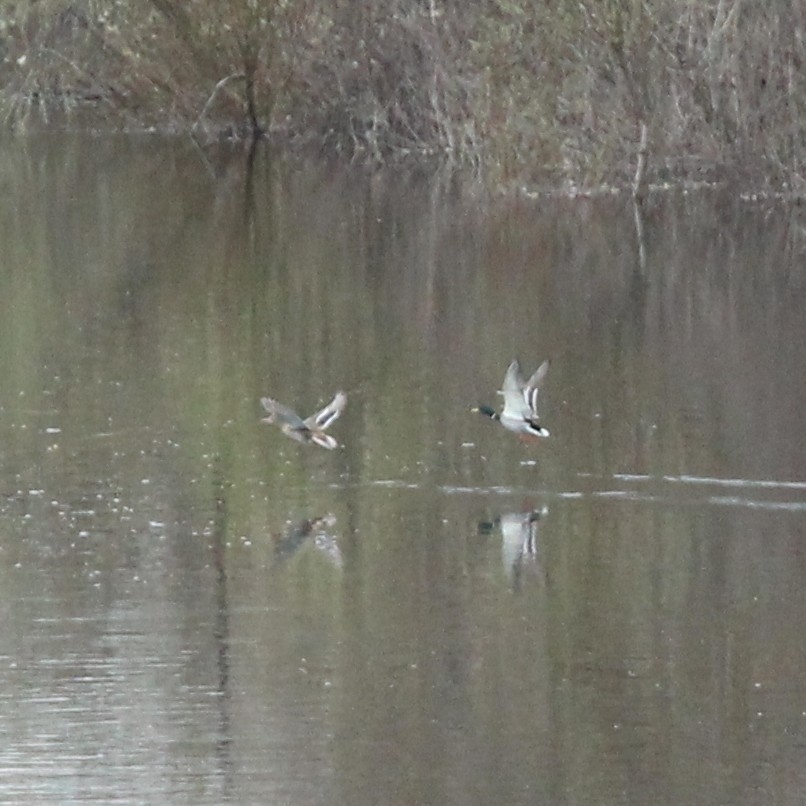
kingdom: Animalia
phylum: Chordata
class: Aves
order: Anseriformes
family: Anatidae
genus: Anas
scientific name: Anas platyrhynchos
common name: Mallard
